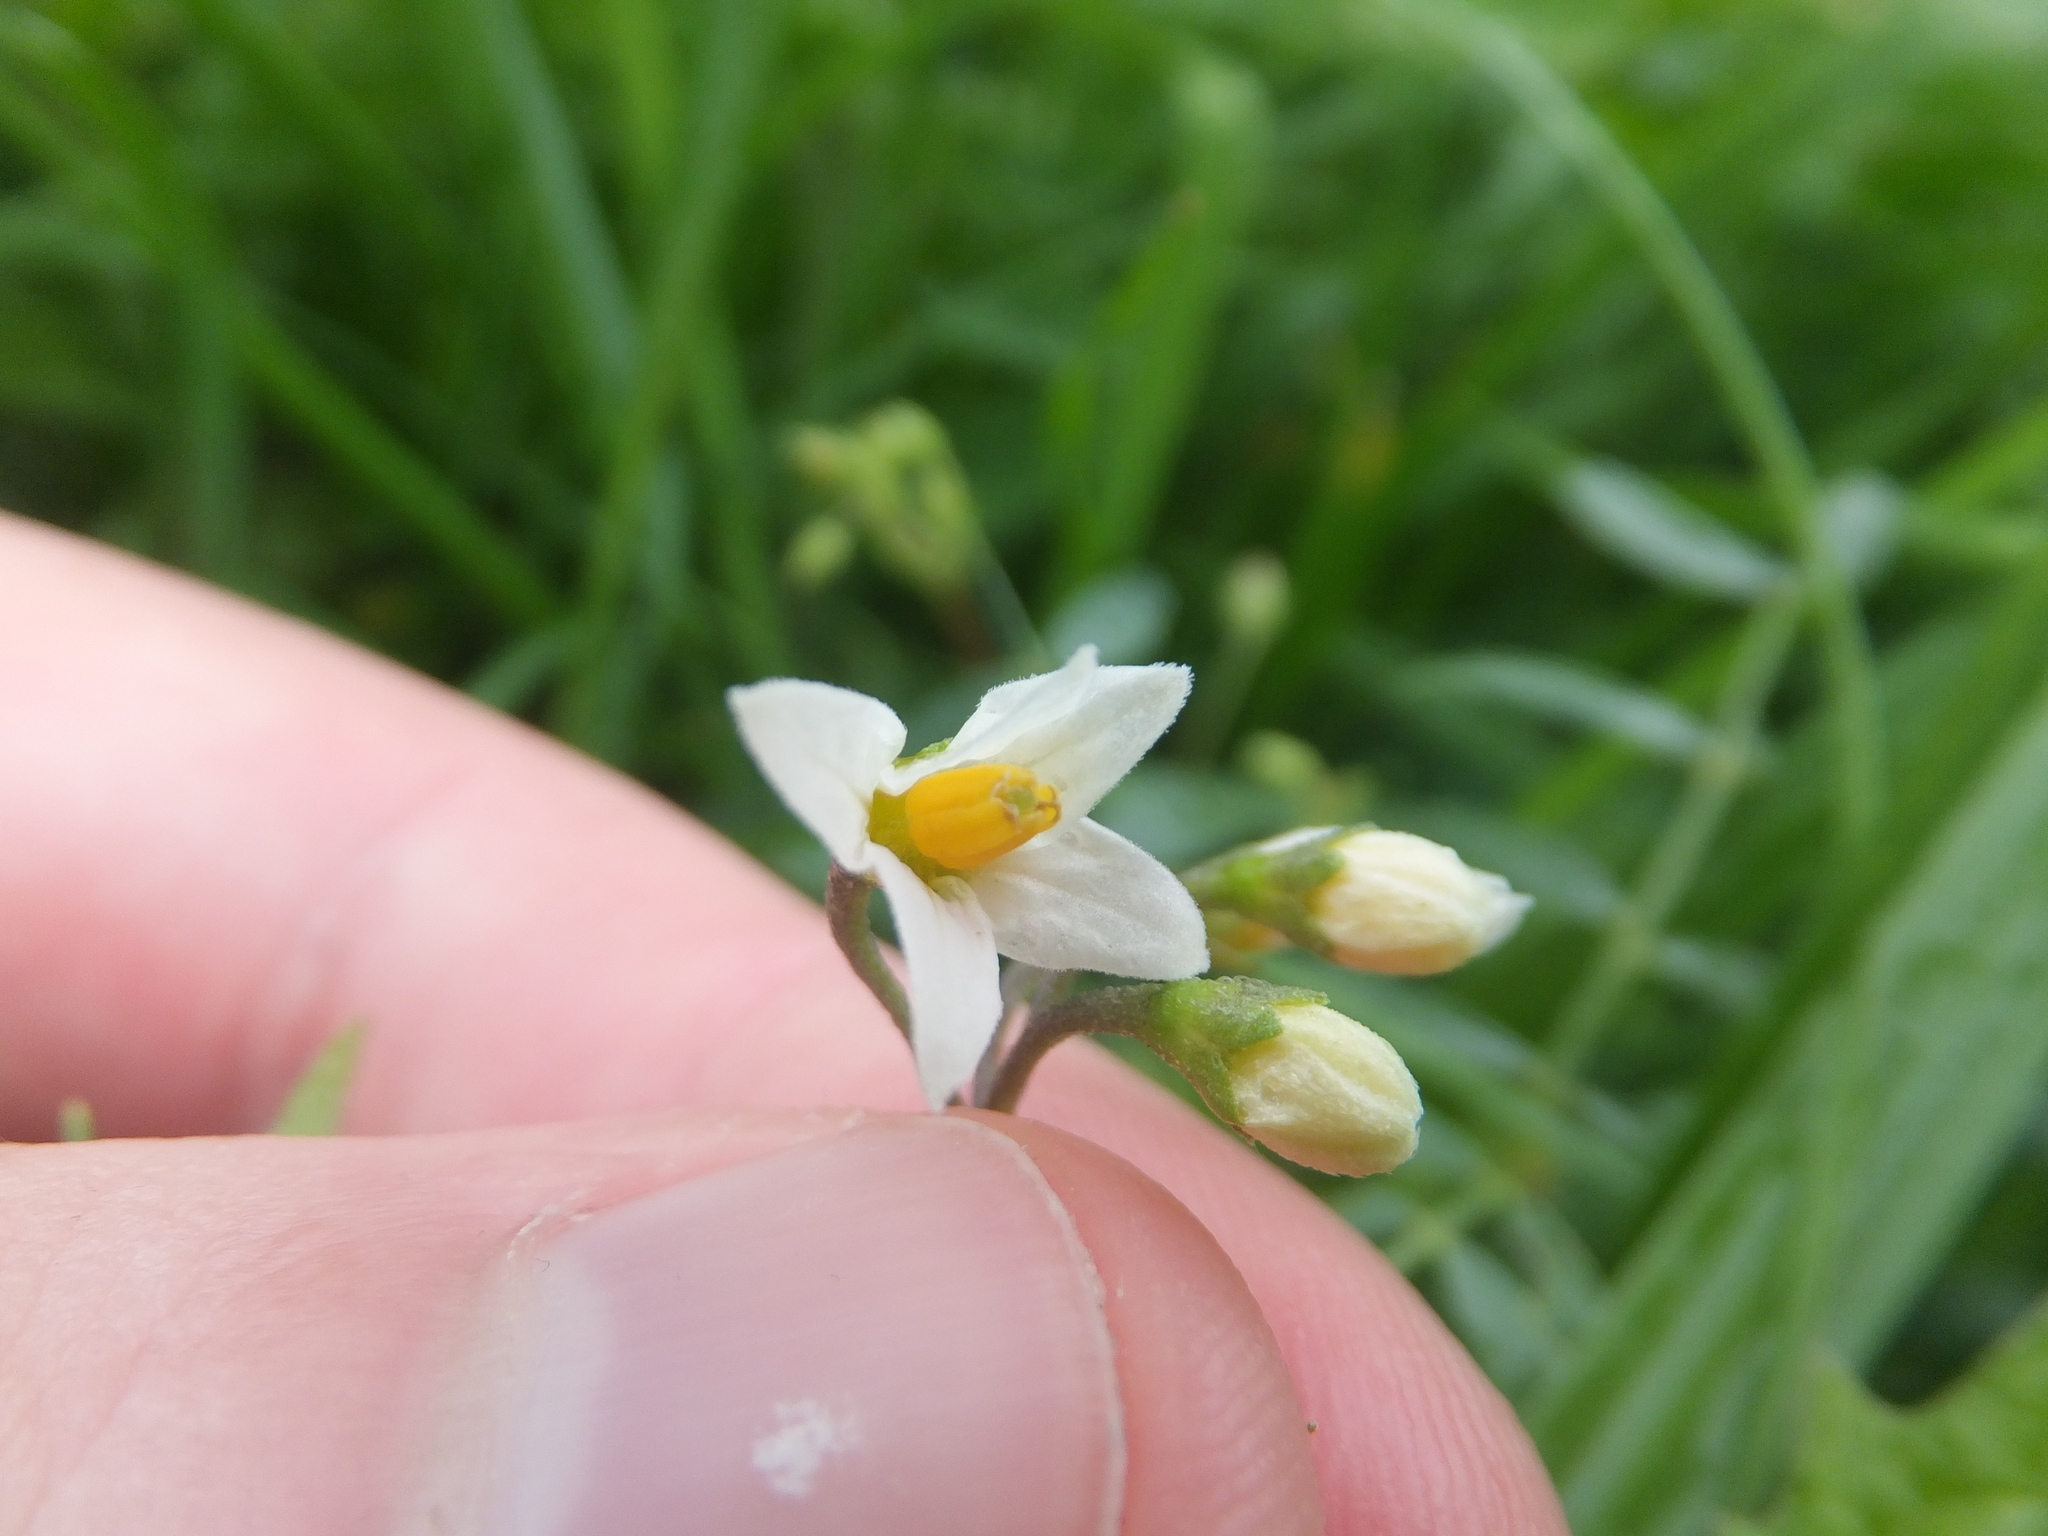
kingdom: Plantae
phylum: Tracheophyta
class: Magnoliopsida
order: Solanales
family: Solanaceae
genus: Solanum
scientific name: Solanum nigrum
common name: Black nightshade
